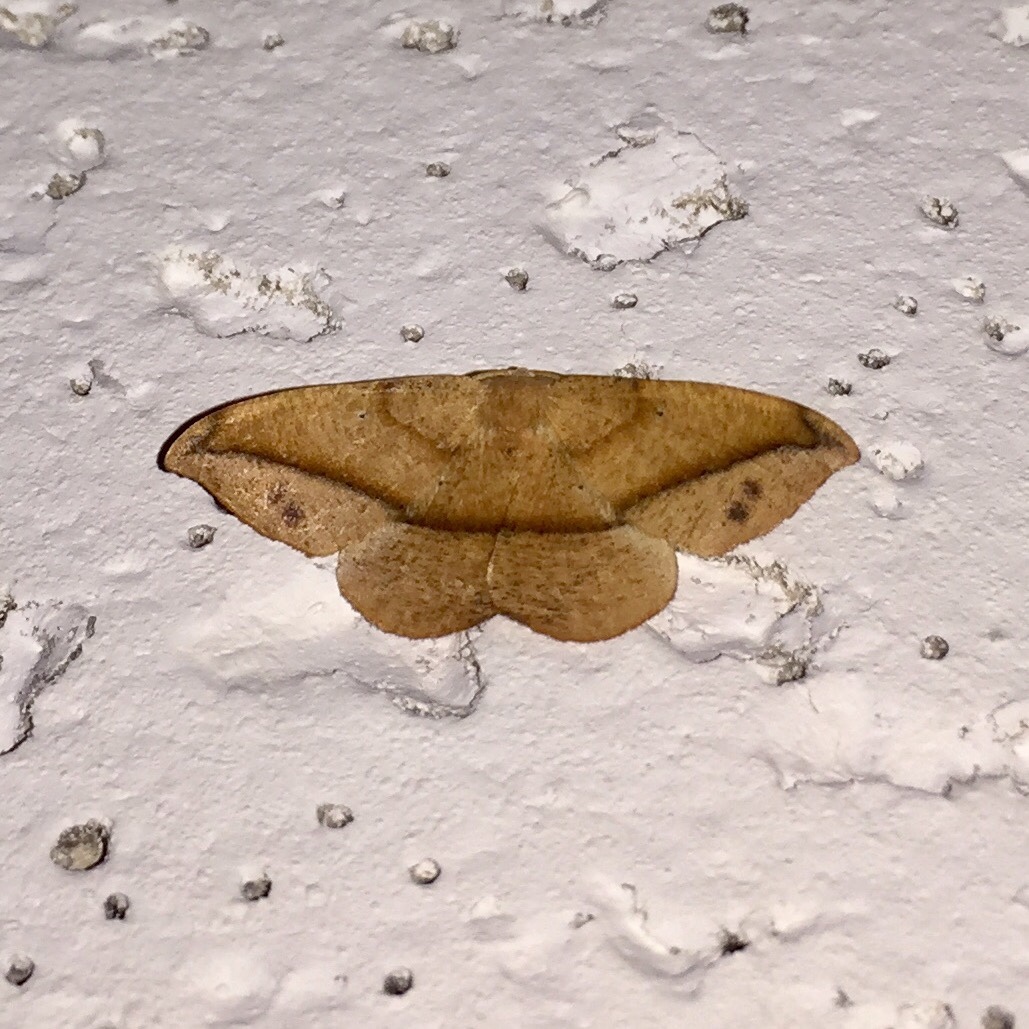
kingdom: Animalia
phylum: Arthropoda
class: Insecta
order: Lepidoptera
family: Geometridae
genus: Patalene
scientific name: Patalene olyzonaria
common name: Juniper geometer moth
